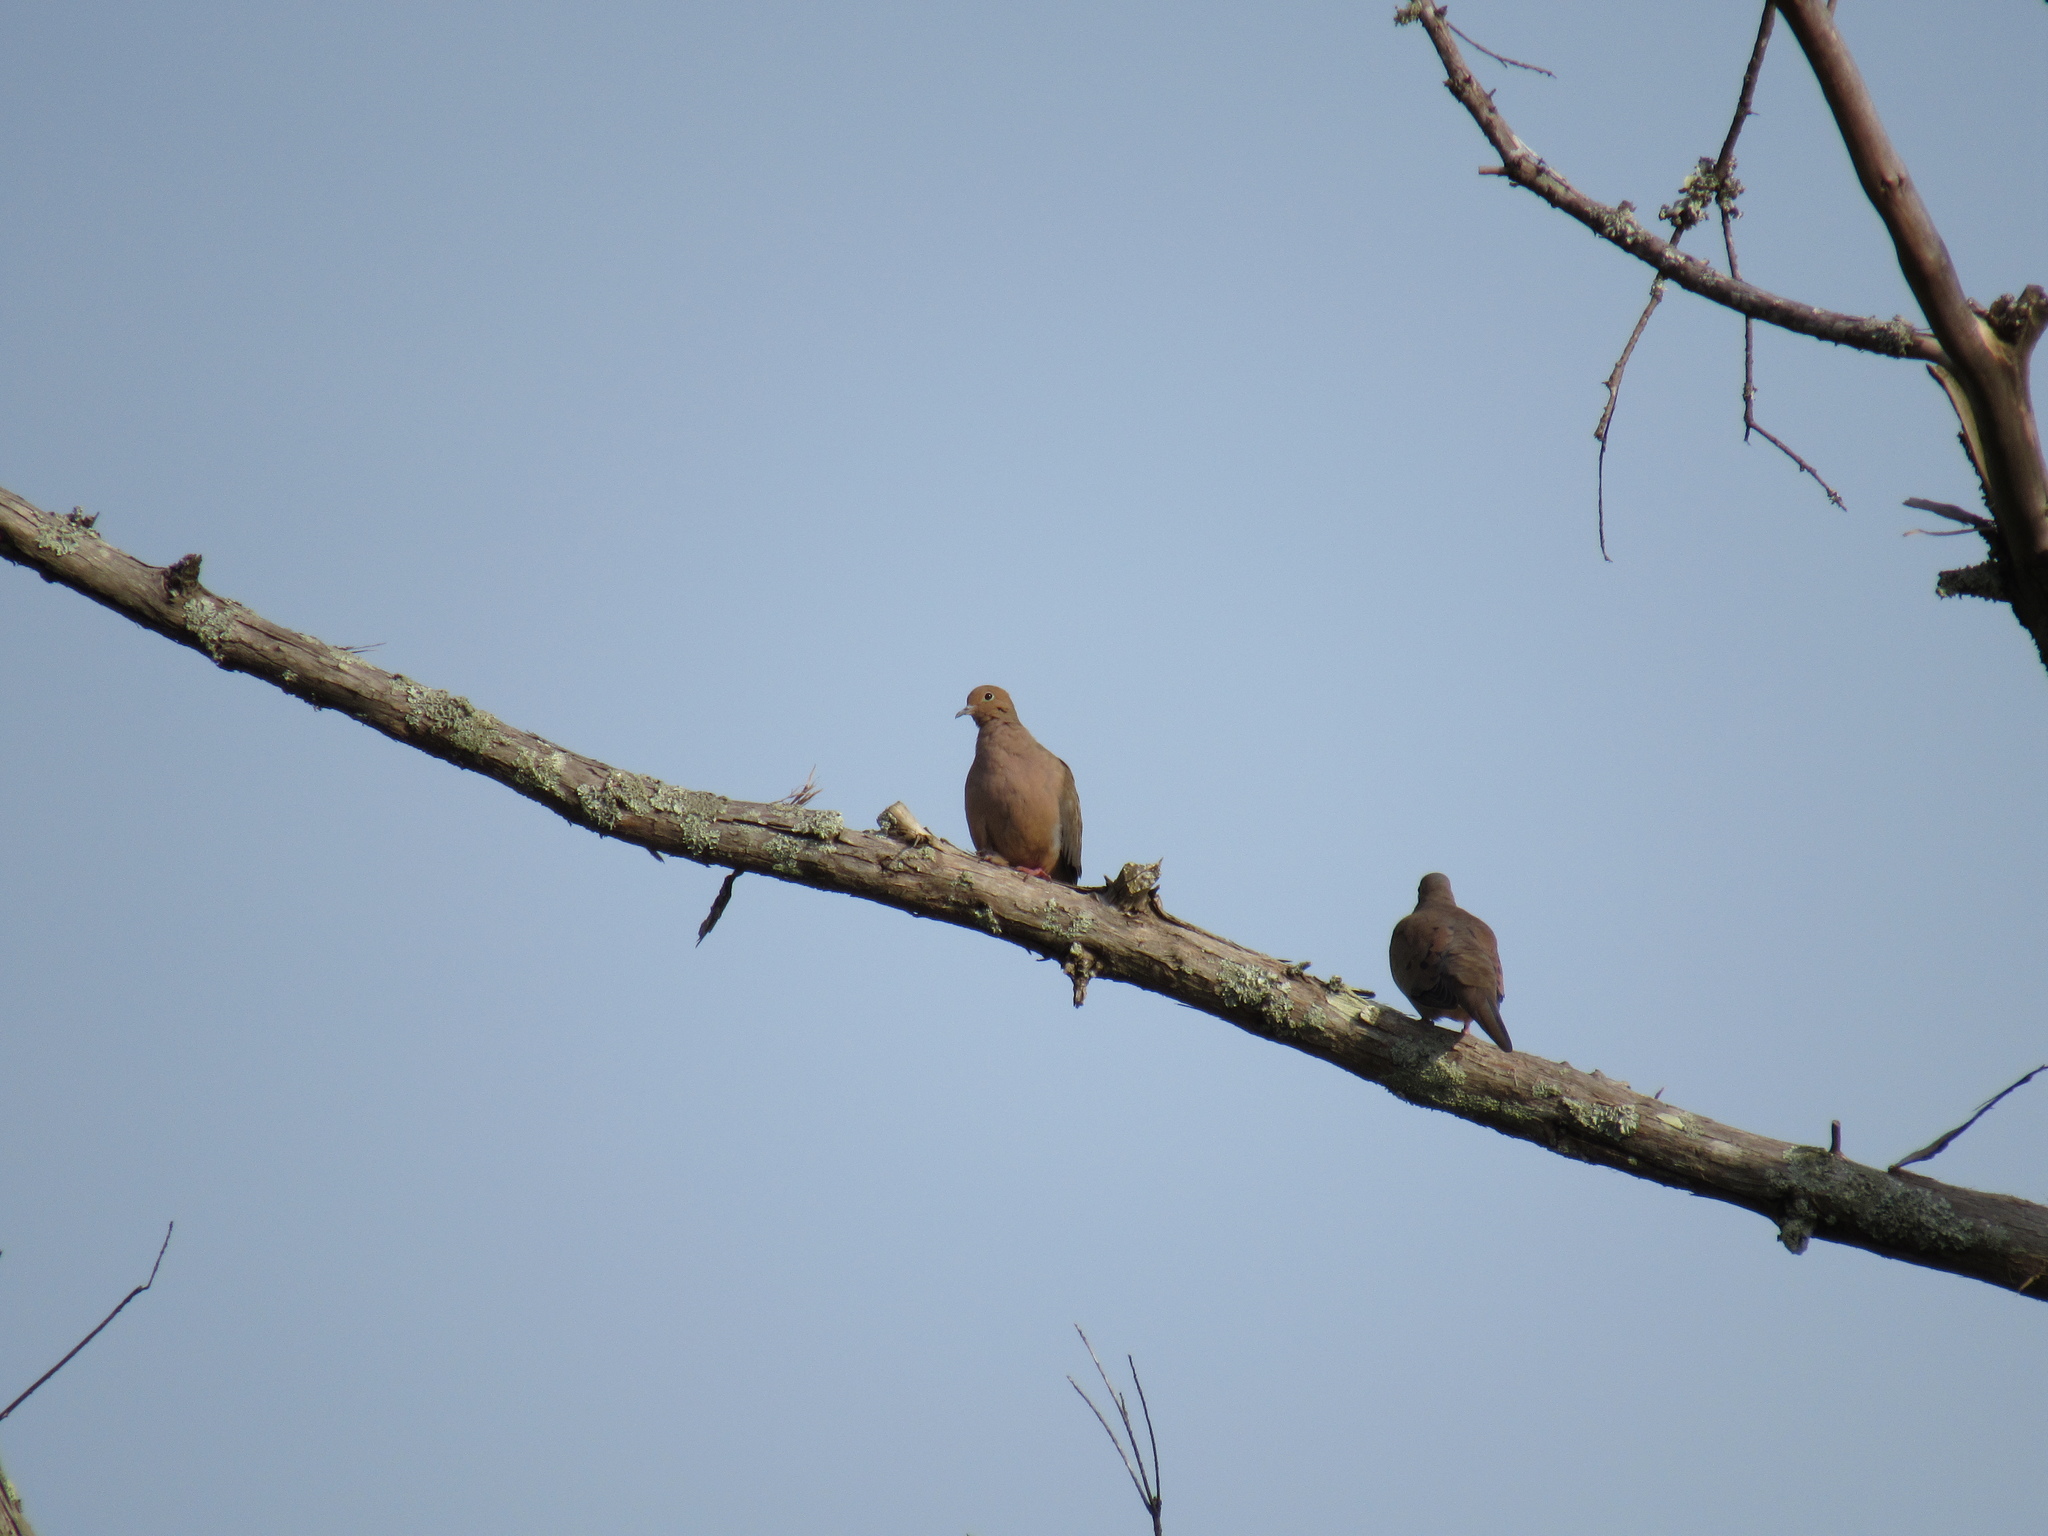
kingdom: Animalia
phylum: Chordata
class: Aves
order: Columbiformes
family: Columbidae
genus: Zenaida
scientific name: Zenaida macroura
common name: Mourning dove
